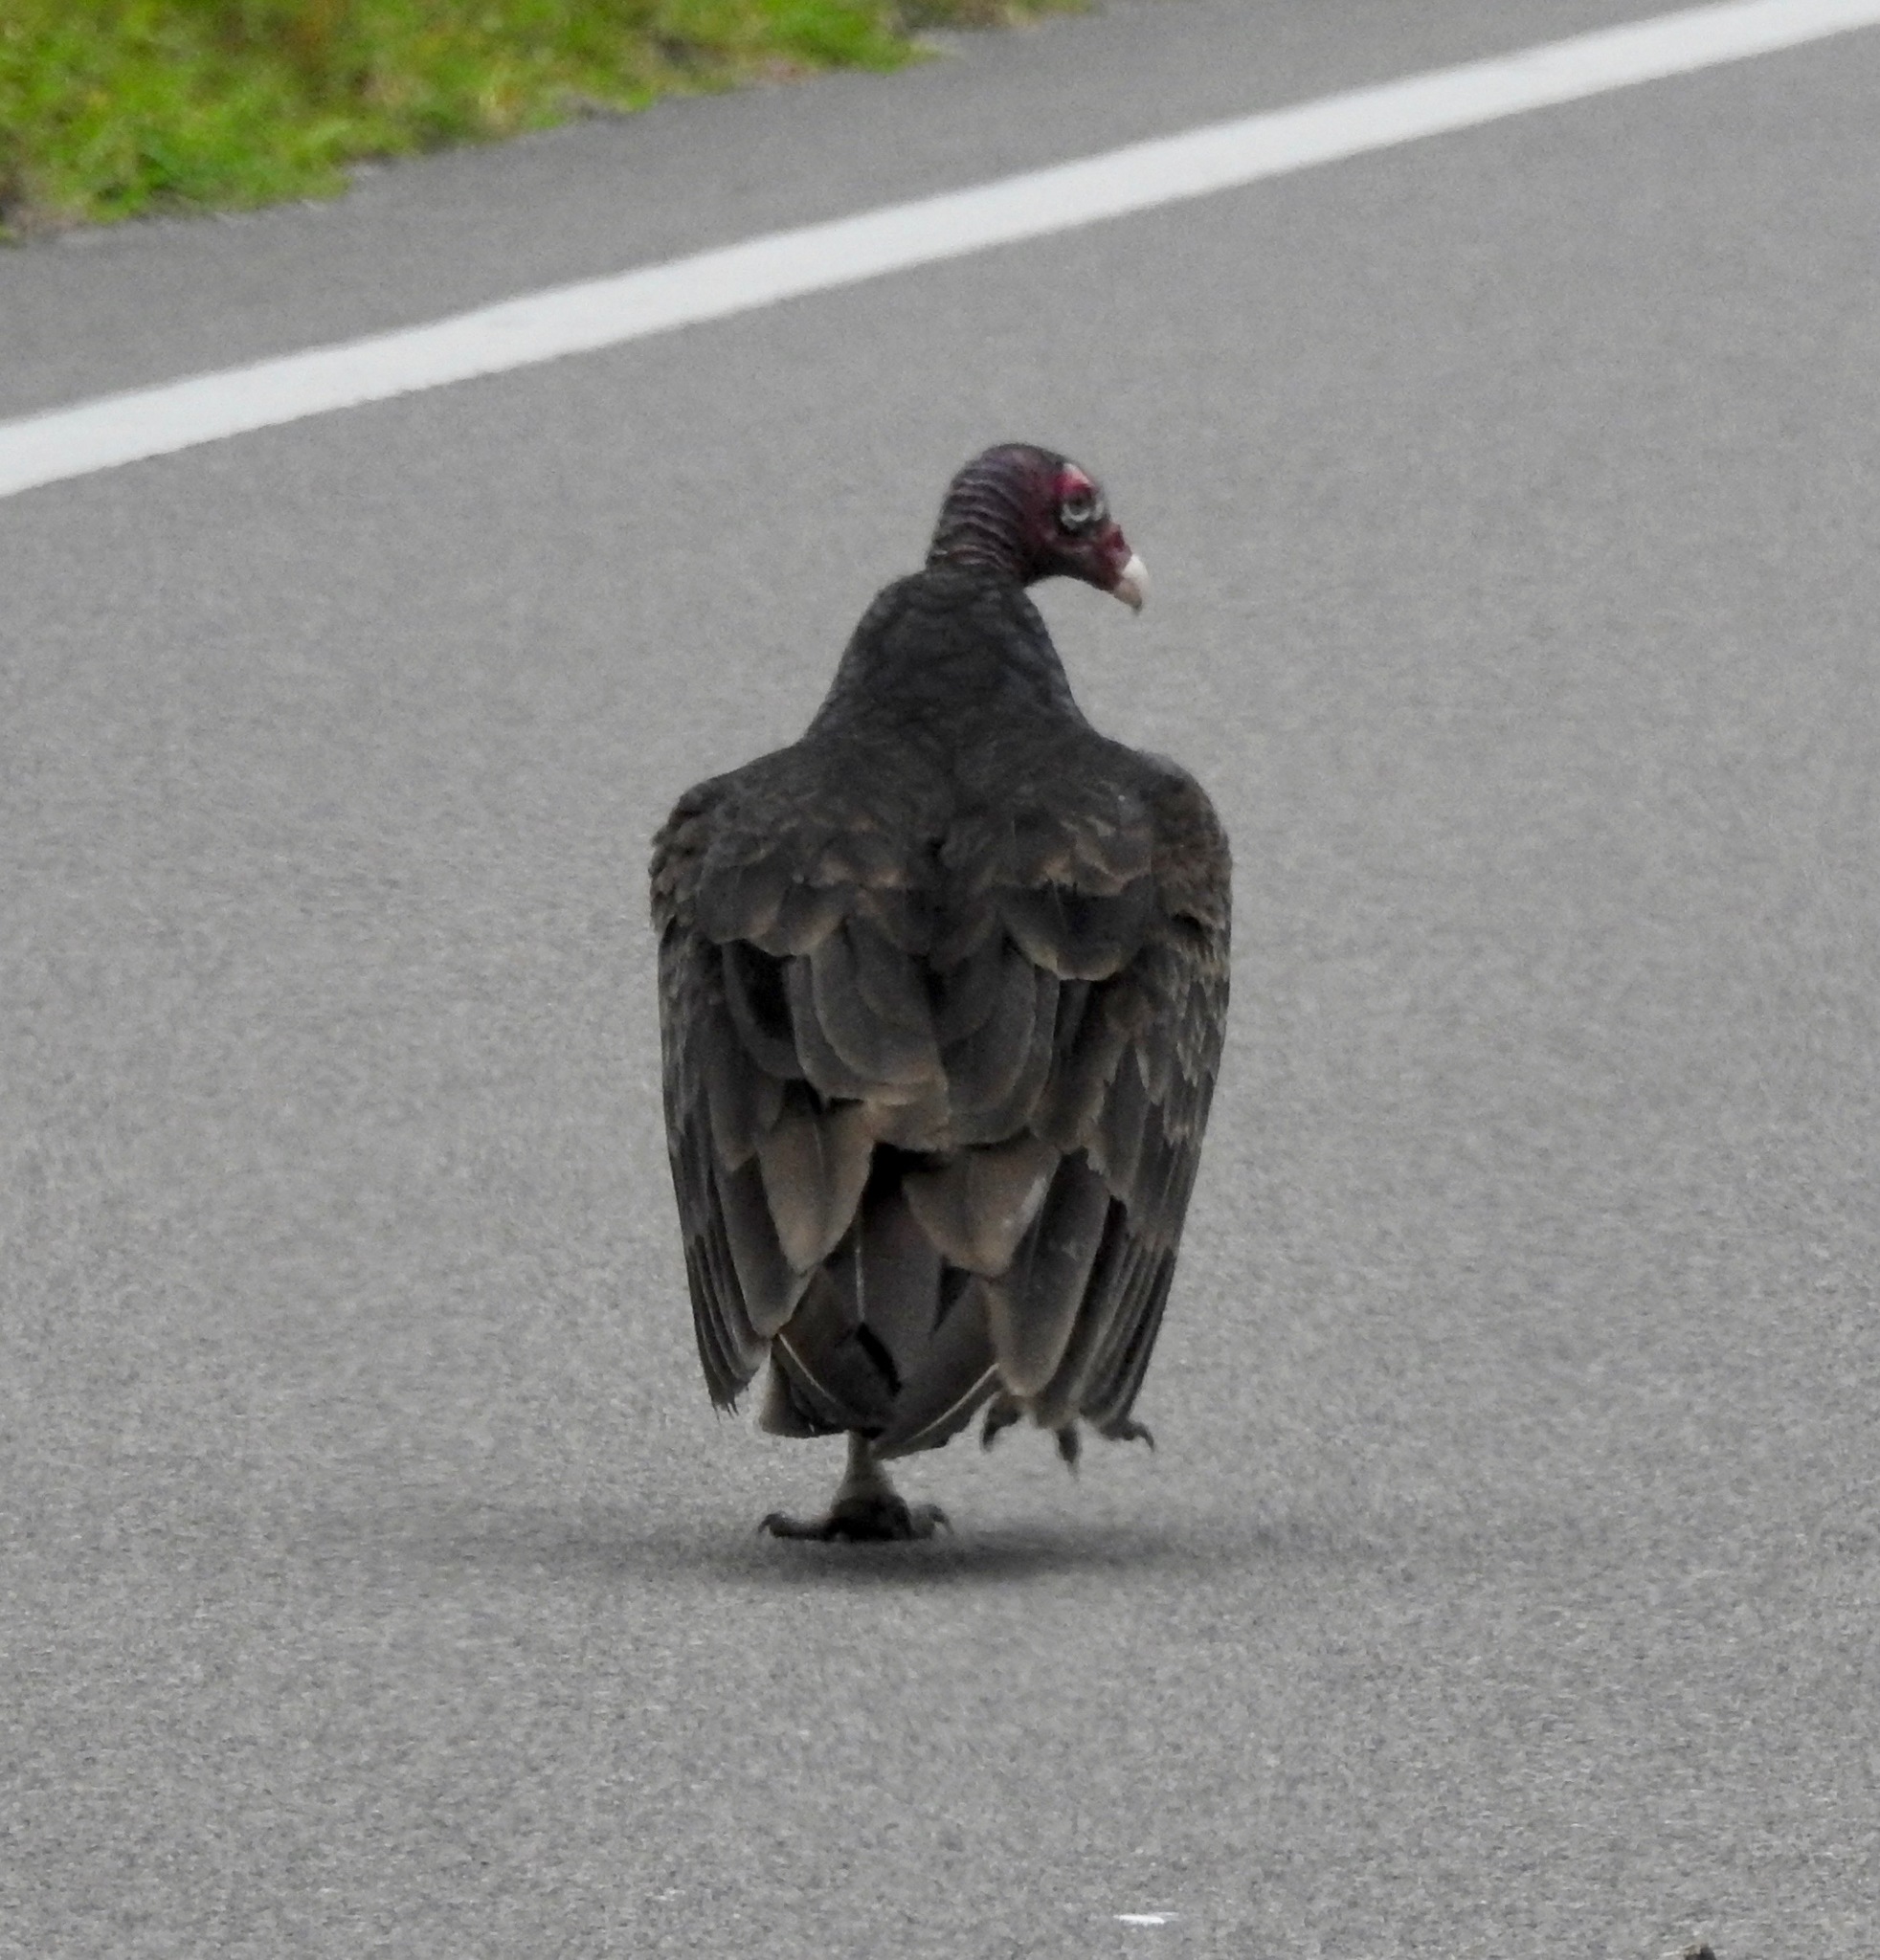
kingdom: Animalia
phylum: Chordata
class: Aves
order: Accipitriformes
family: Cathartidae
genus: Cathartes
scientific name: Cathartes aura
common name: Turkey vulture
